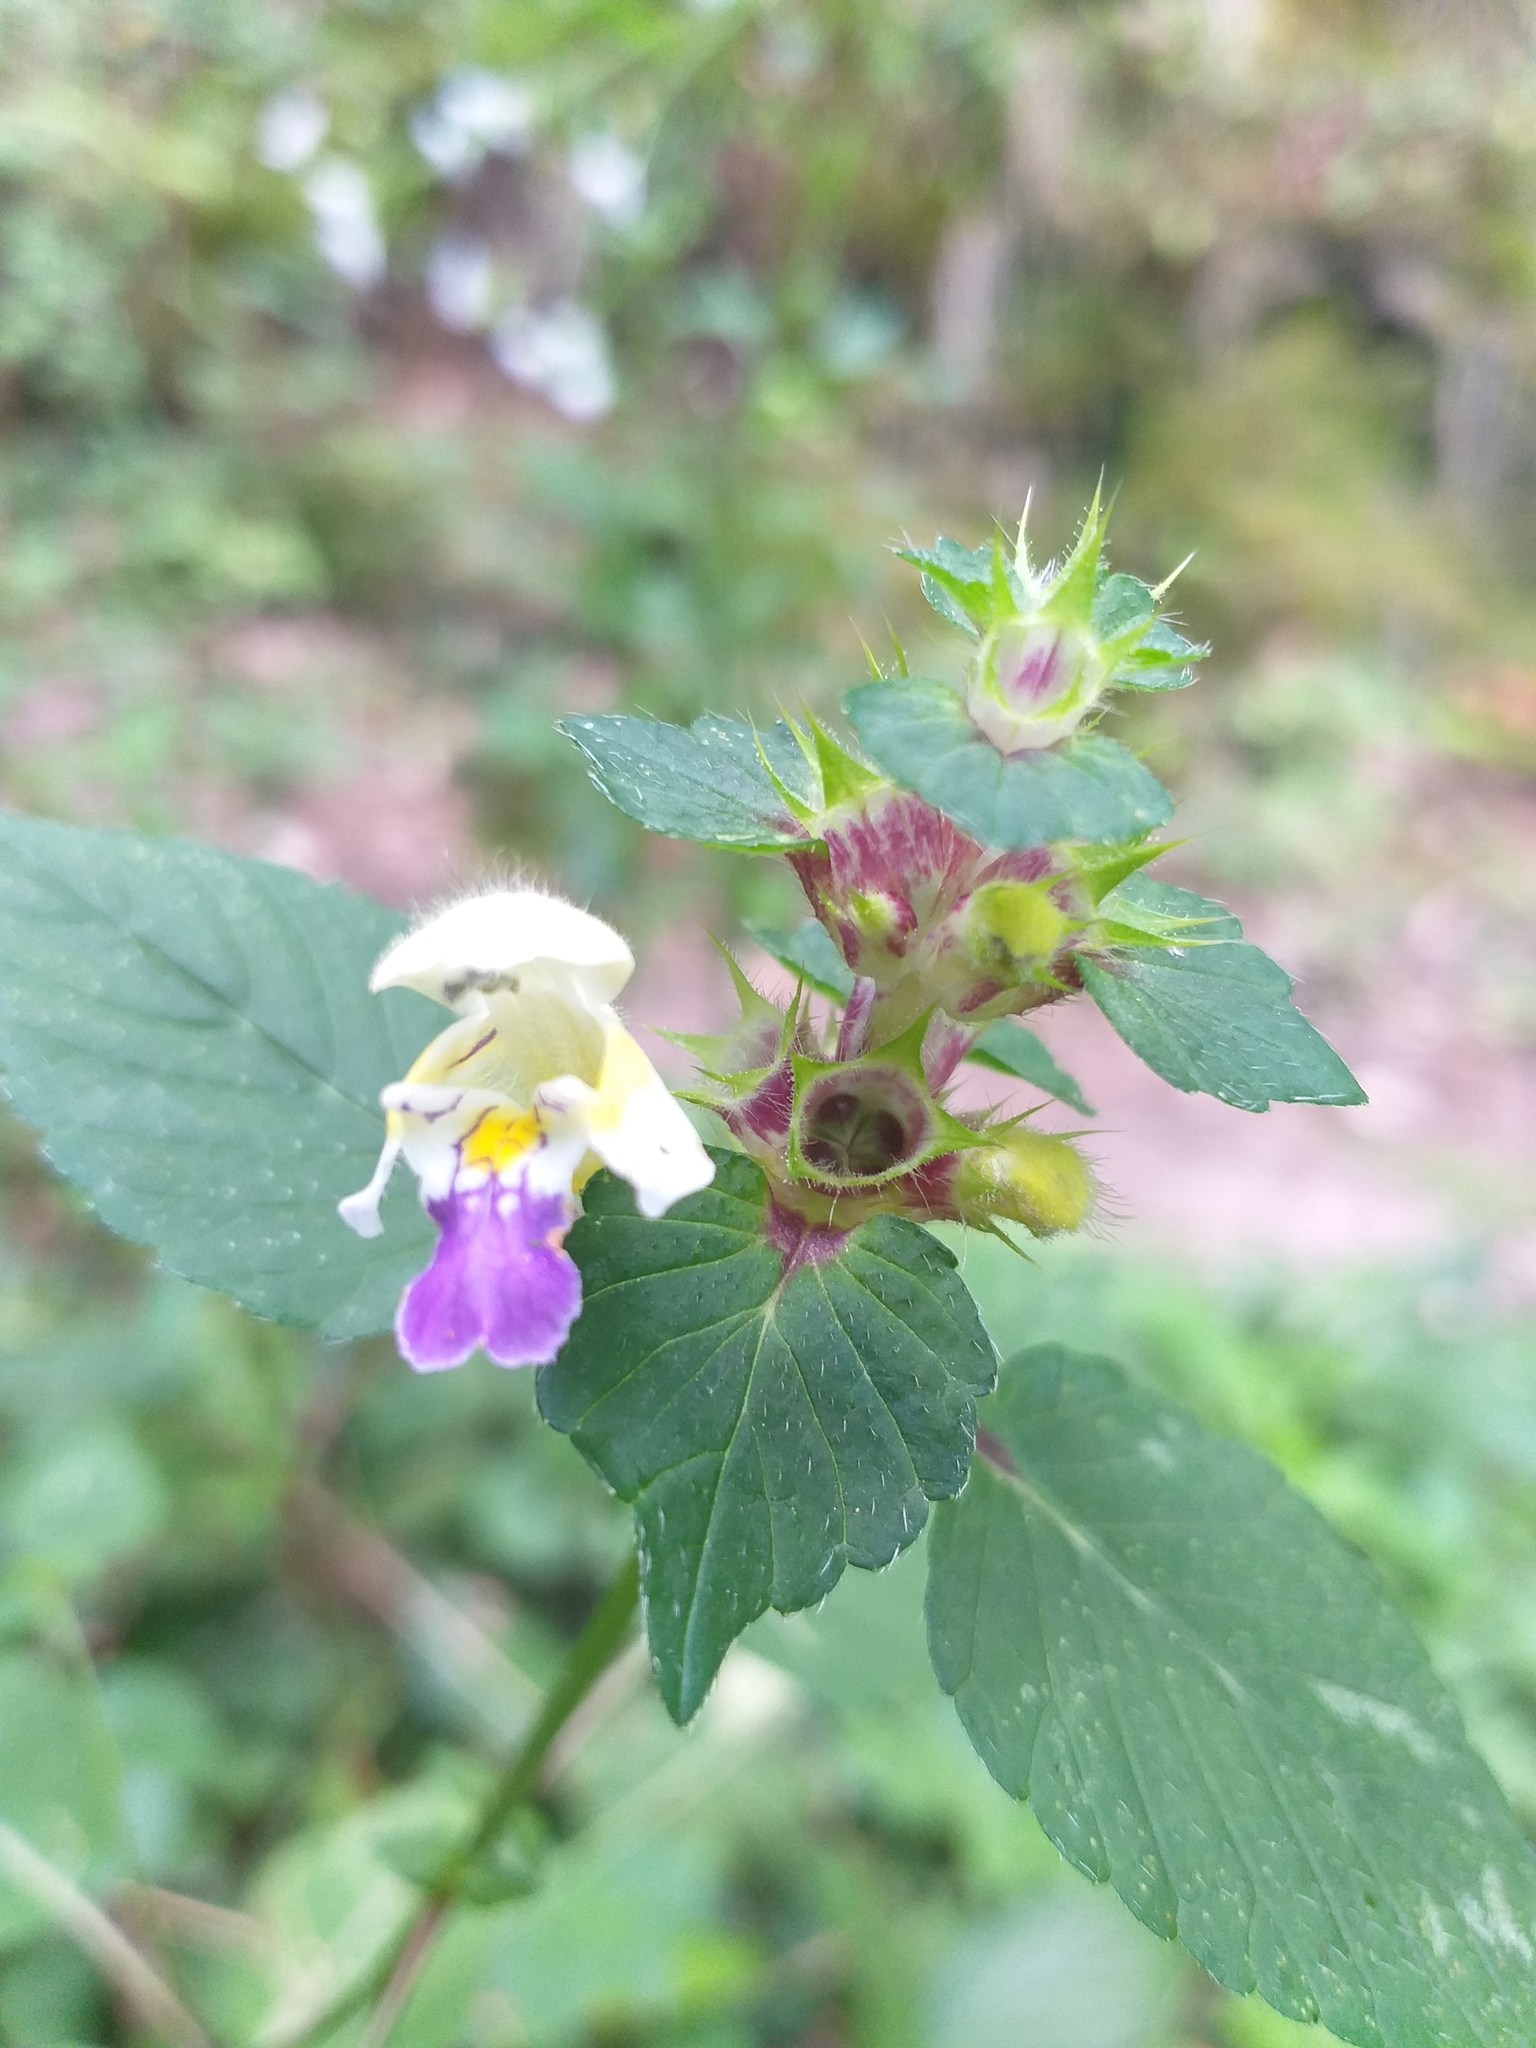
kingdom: Plantae
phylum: Tracheophyta
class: Magnoliopsida
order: Lamiales
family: Lamiaceae
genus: Galeopsis
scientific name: Galeopsis speciosa
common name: Large-flowered hemp-nettle
